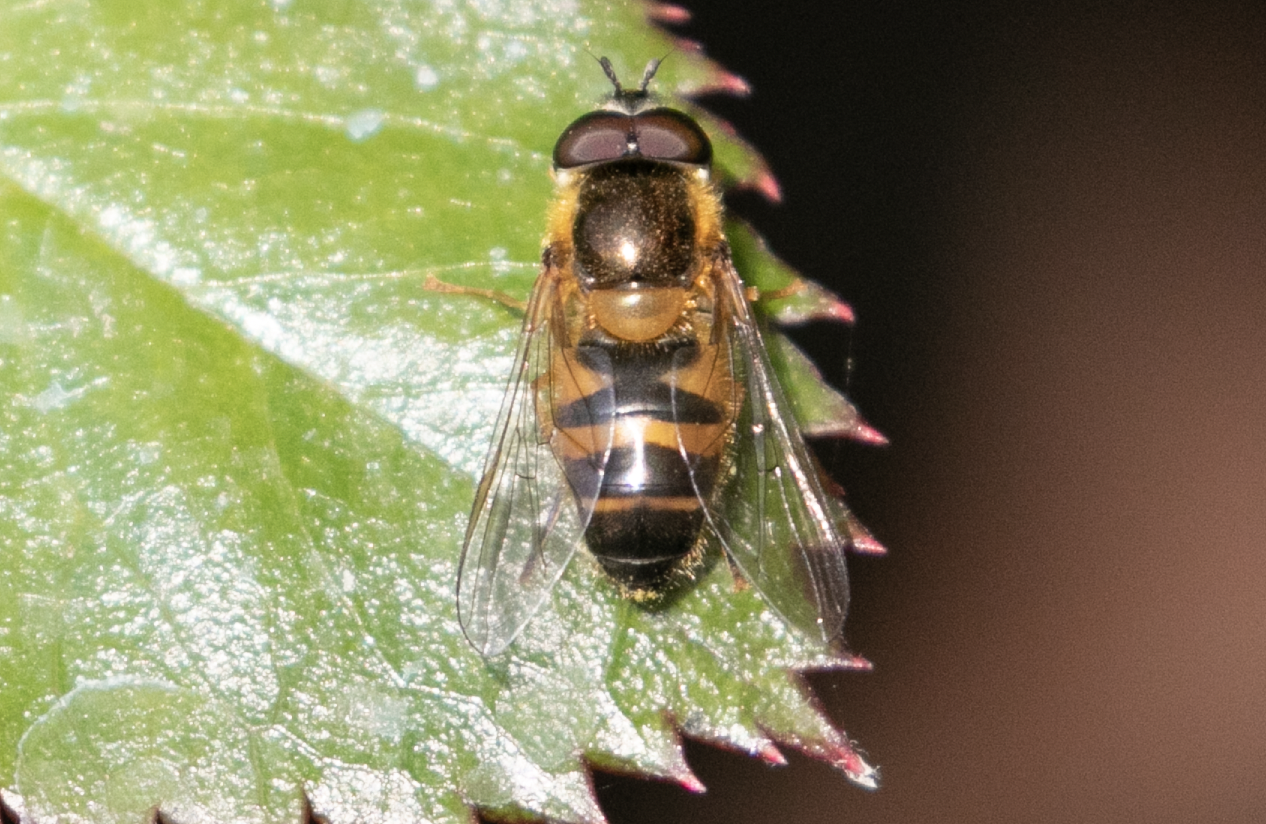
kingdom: Animalia
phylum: Arthropoda
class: Insecta
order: Diptera
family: Syrphidae
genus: Epistrophe
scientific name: Epistrophe eligans
